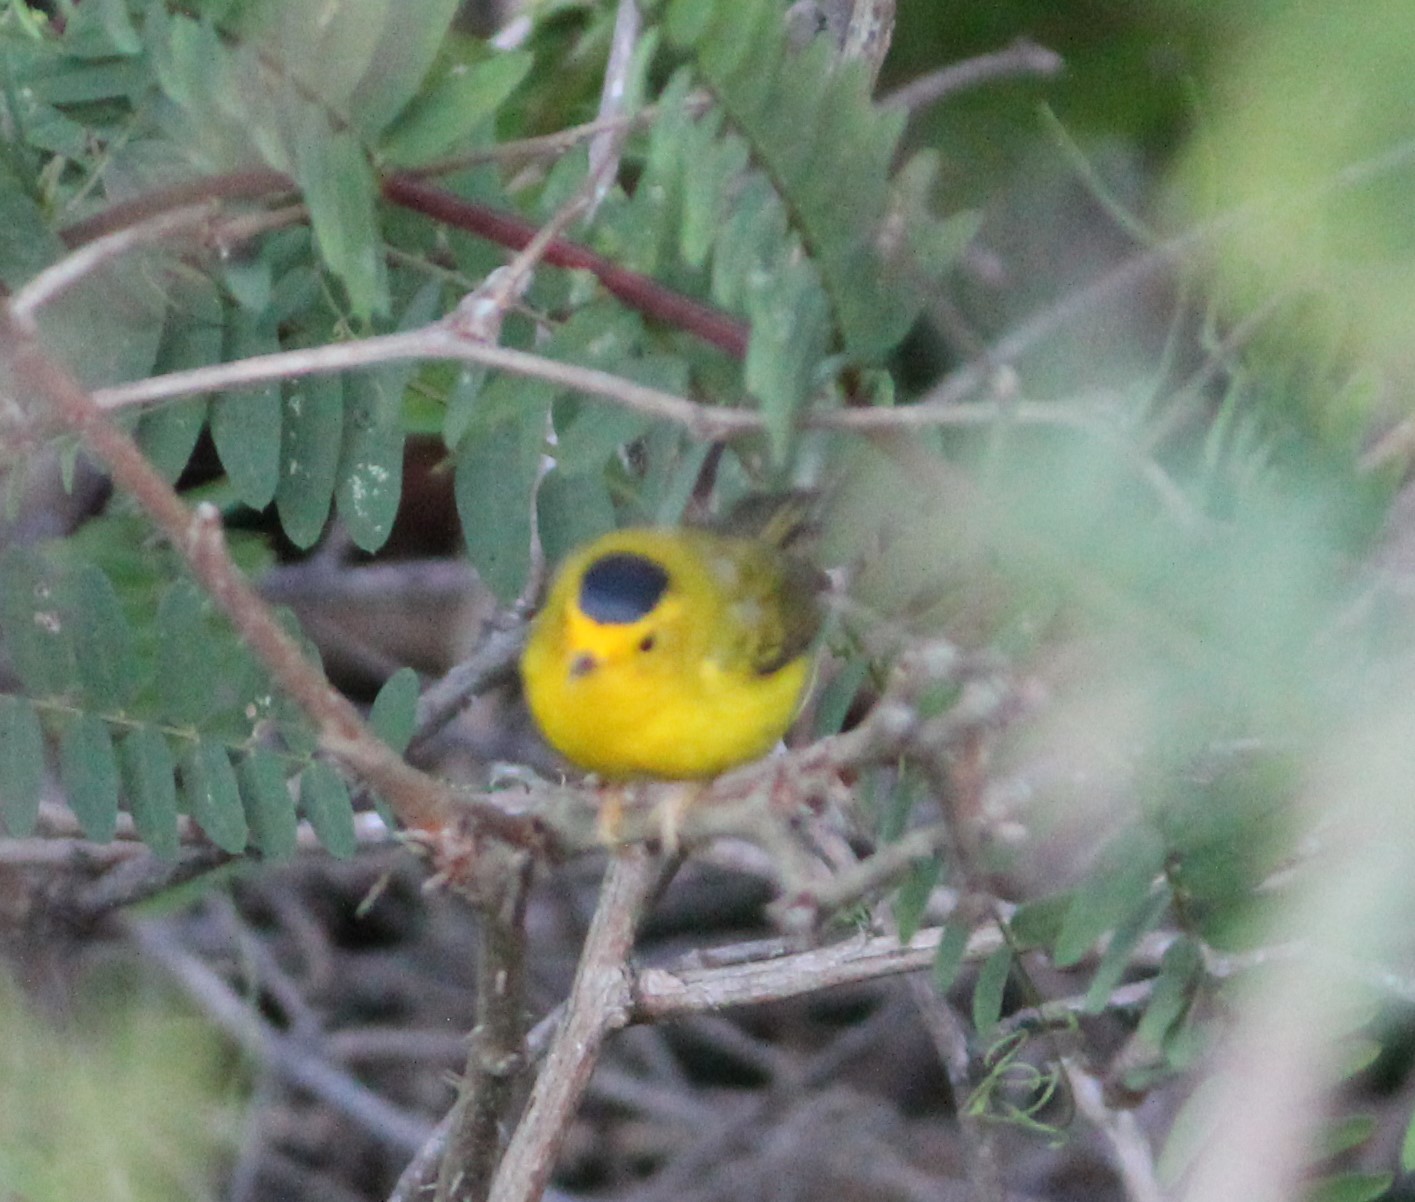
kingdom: Animalia
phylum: Chordata
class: Aves
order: Passeriformes
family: Parulidae
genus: Cardellina
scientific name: Cardellina pusilla
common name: Wilson's warbler
